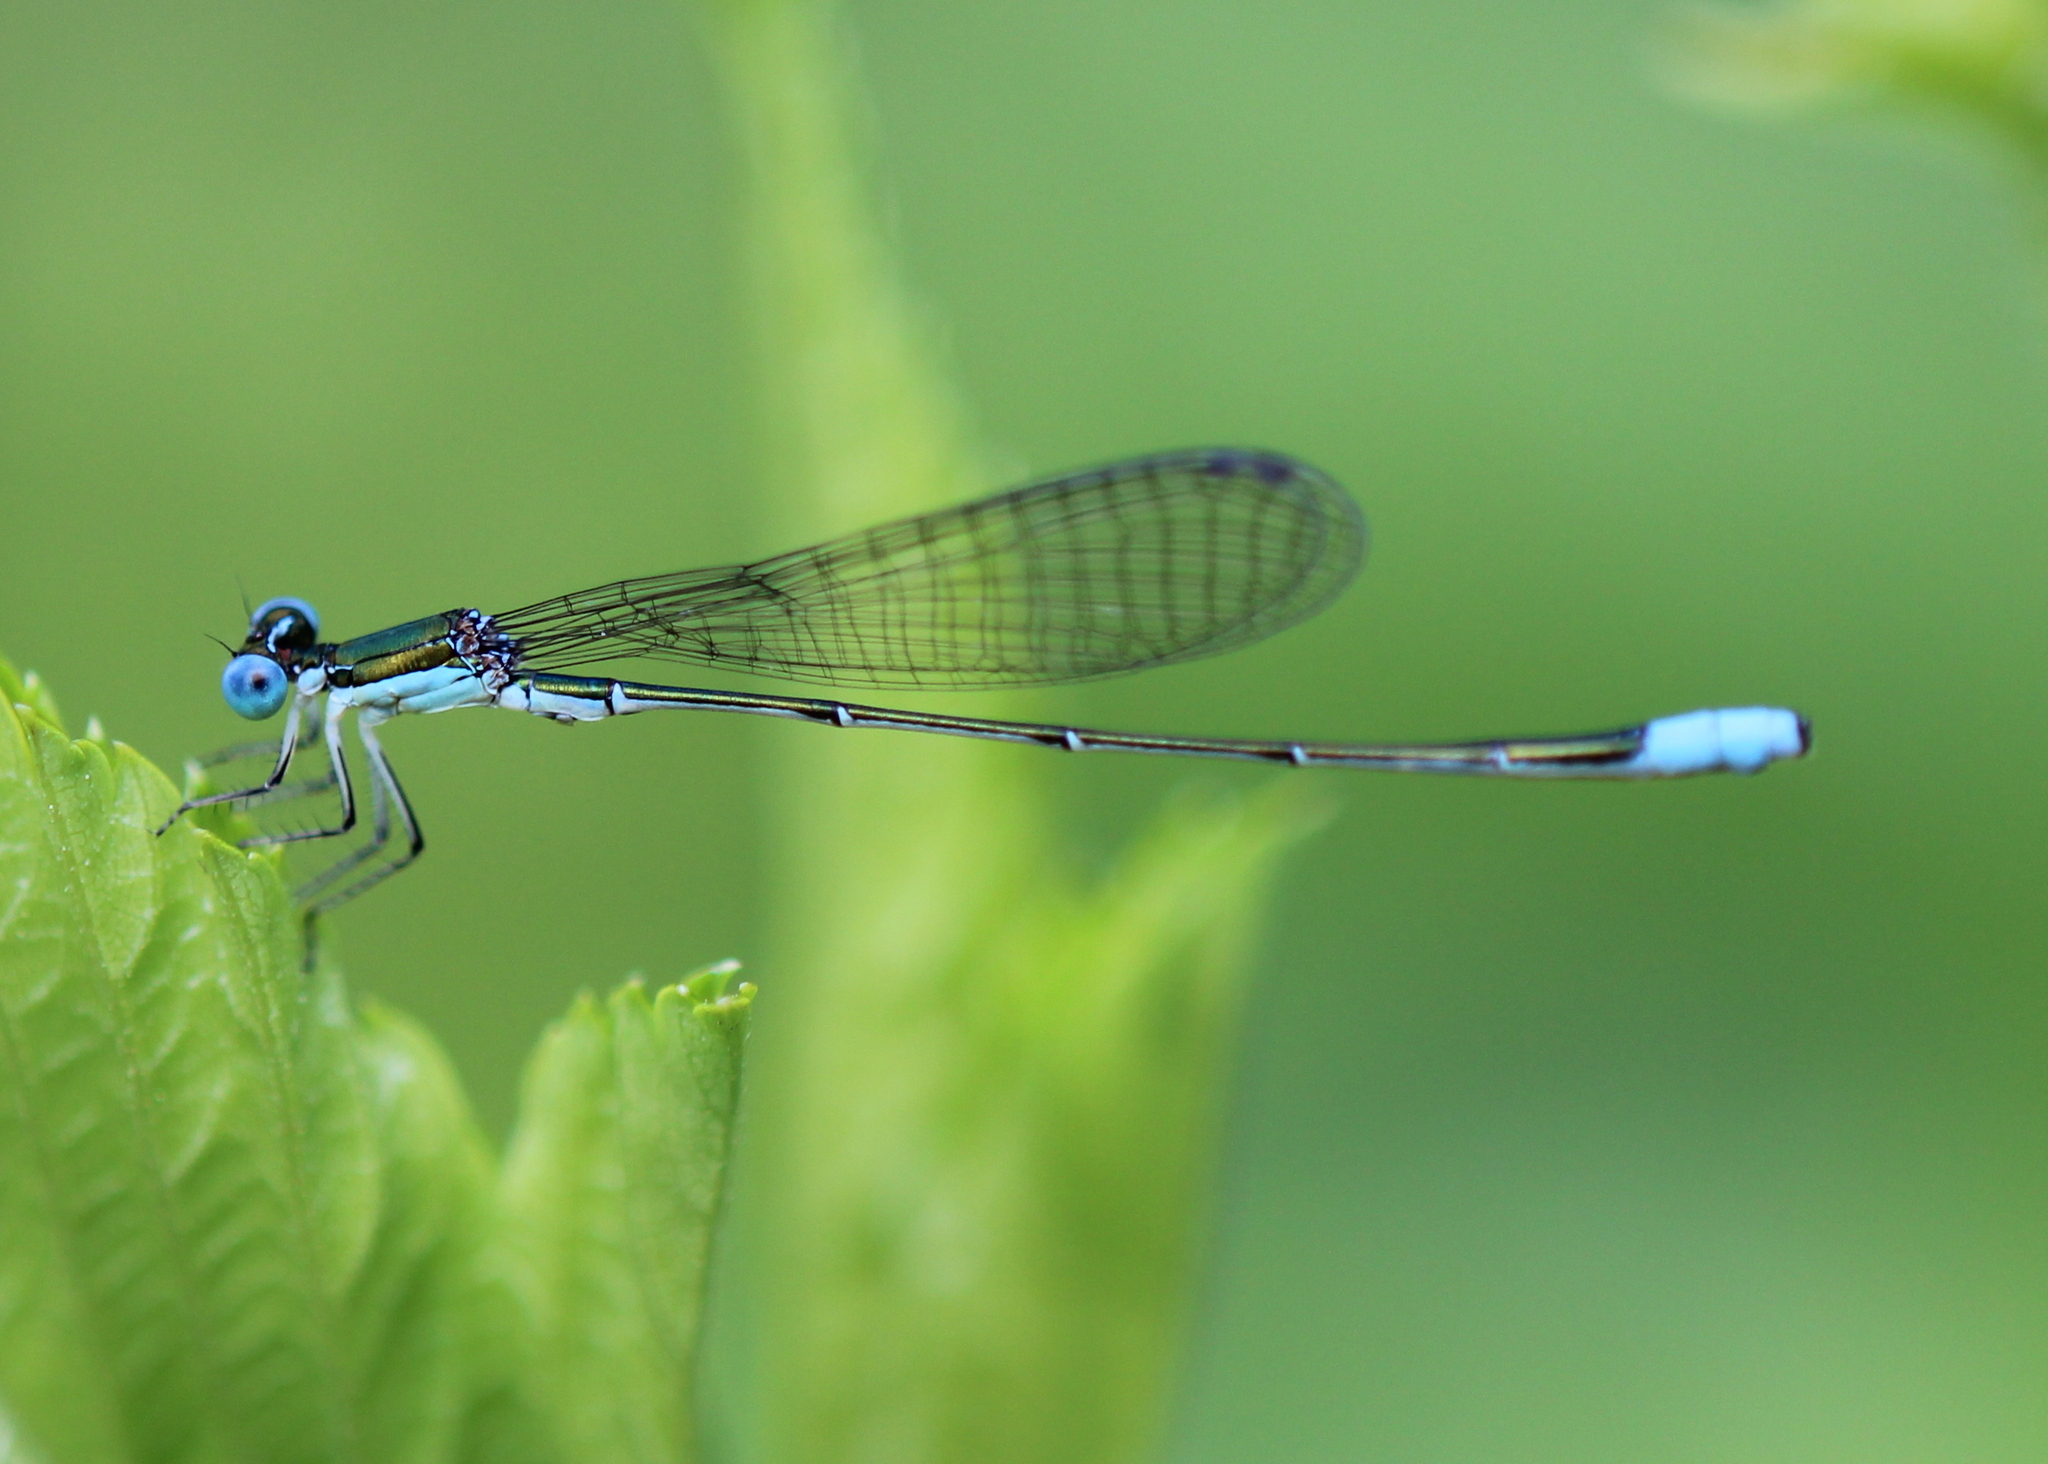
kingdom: Animalia
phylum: Arthropoda
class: Insecta
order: Odonata
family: Coenagrionidae
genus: Nehalennia
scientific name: Nehalennia gracilis
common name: Sphagnum sprite
